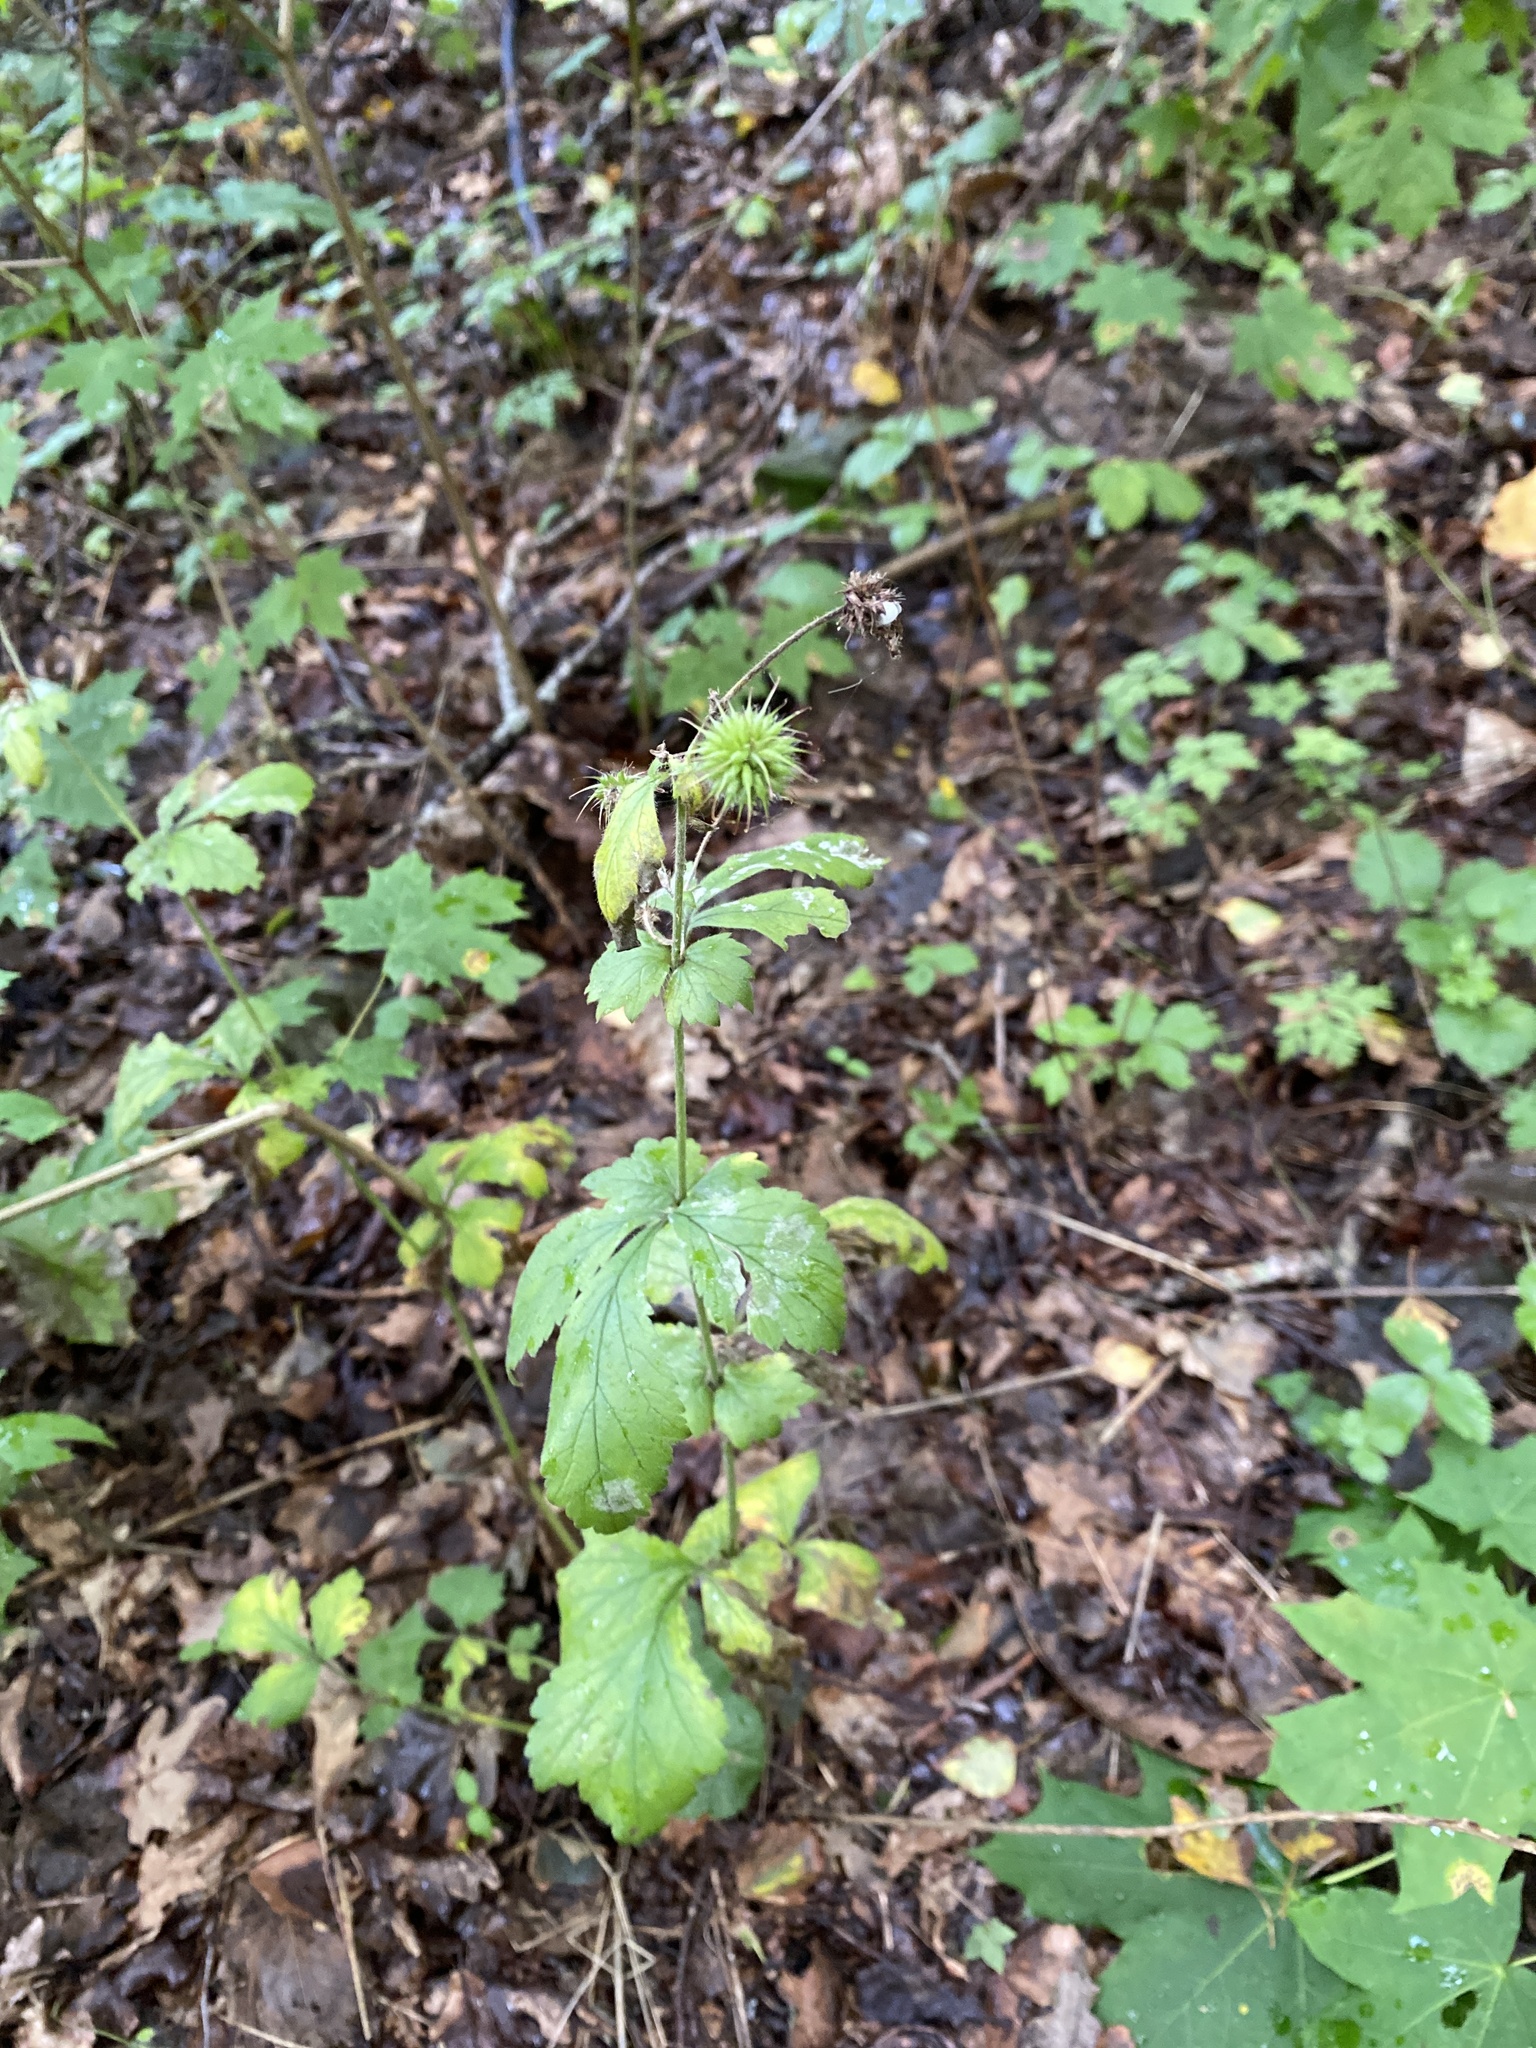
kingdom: Plantae
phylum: Tracheophyta
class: Magnoliopsida
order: Rosales
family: Rosaceae
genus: Geum
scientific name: Geum urbanum
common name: Wood avens
